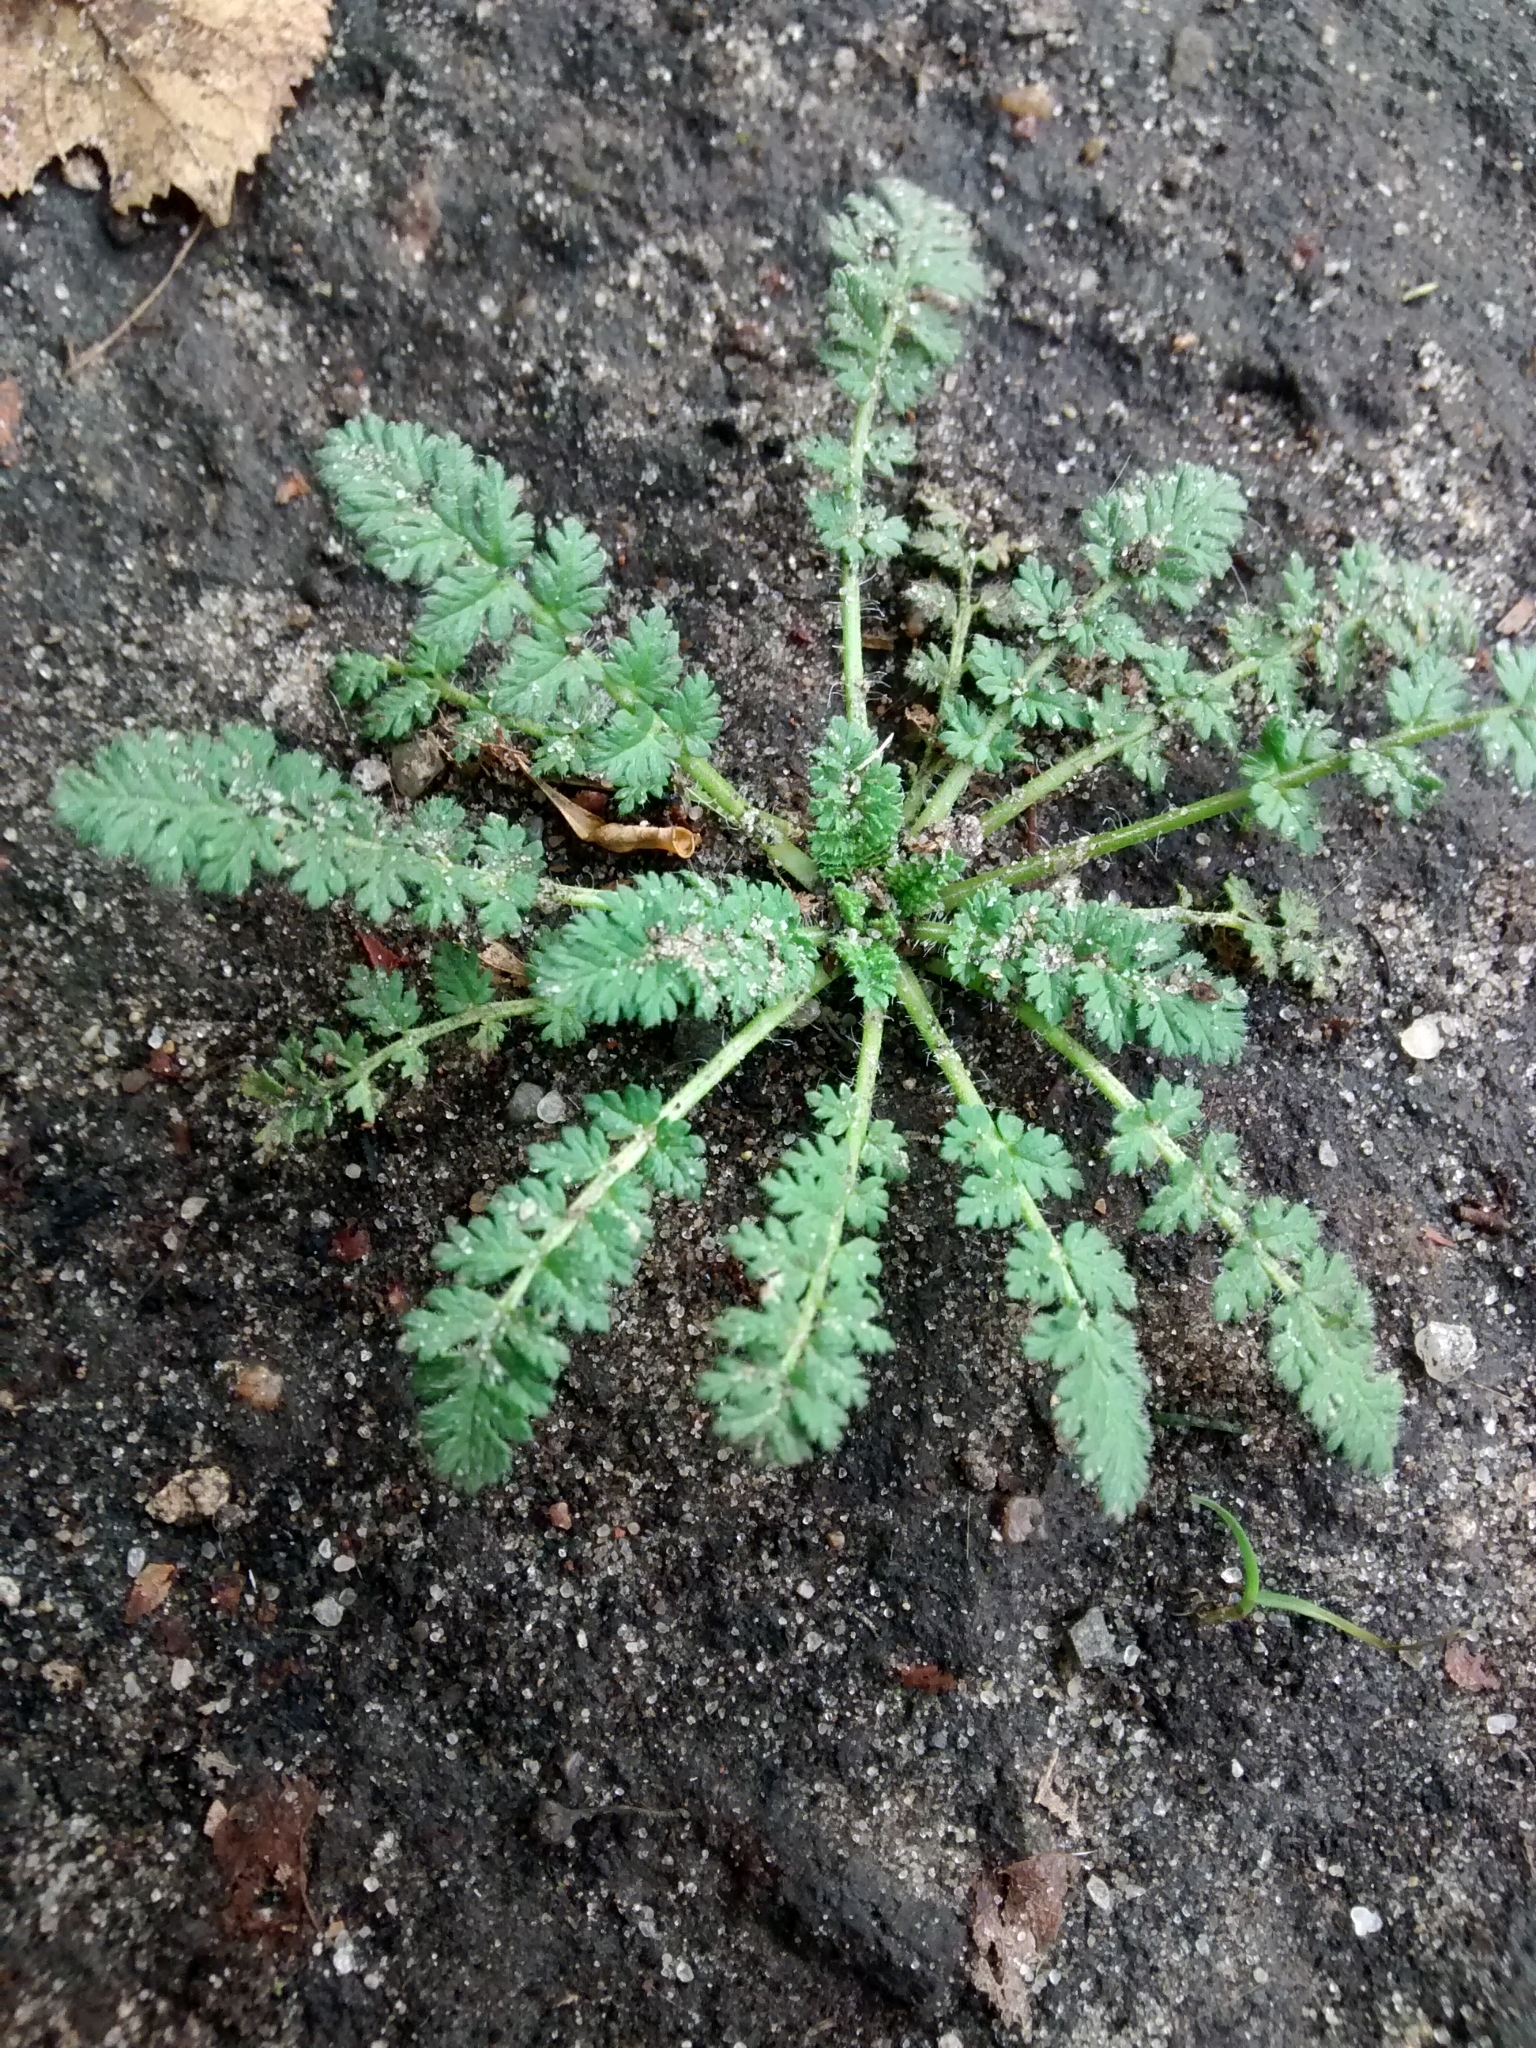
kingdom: Plantae
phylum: Tracheophyta
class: Magnoliopsida
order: Geraniales
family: Geraniaceae
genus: Erodium
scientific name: Erodium cicutarium
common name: Common stork's-bill
